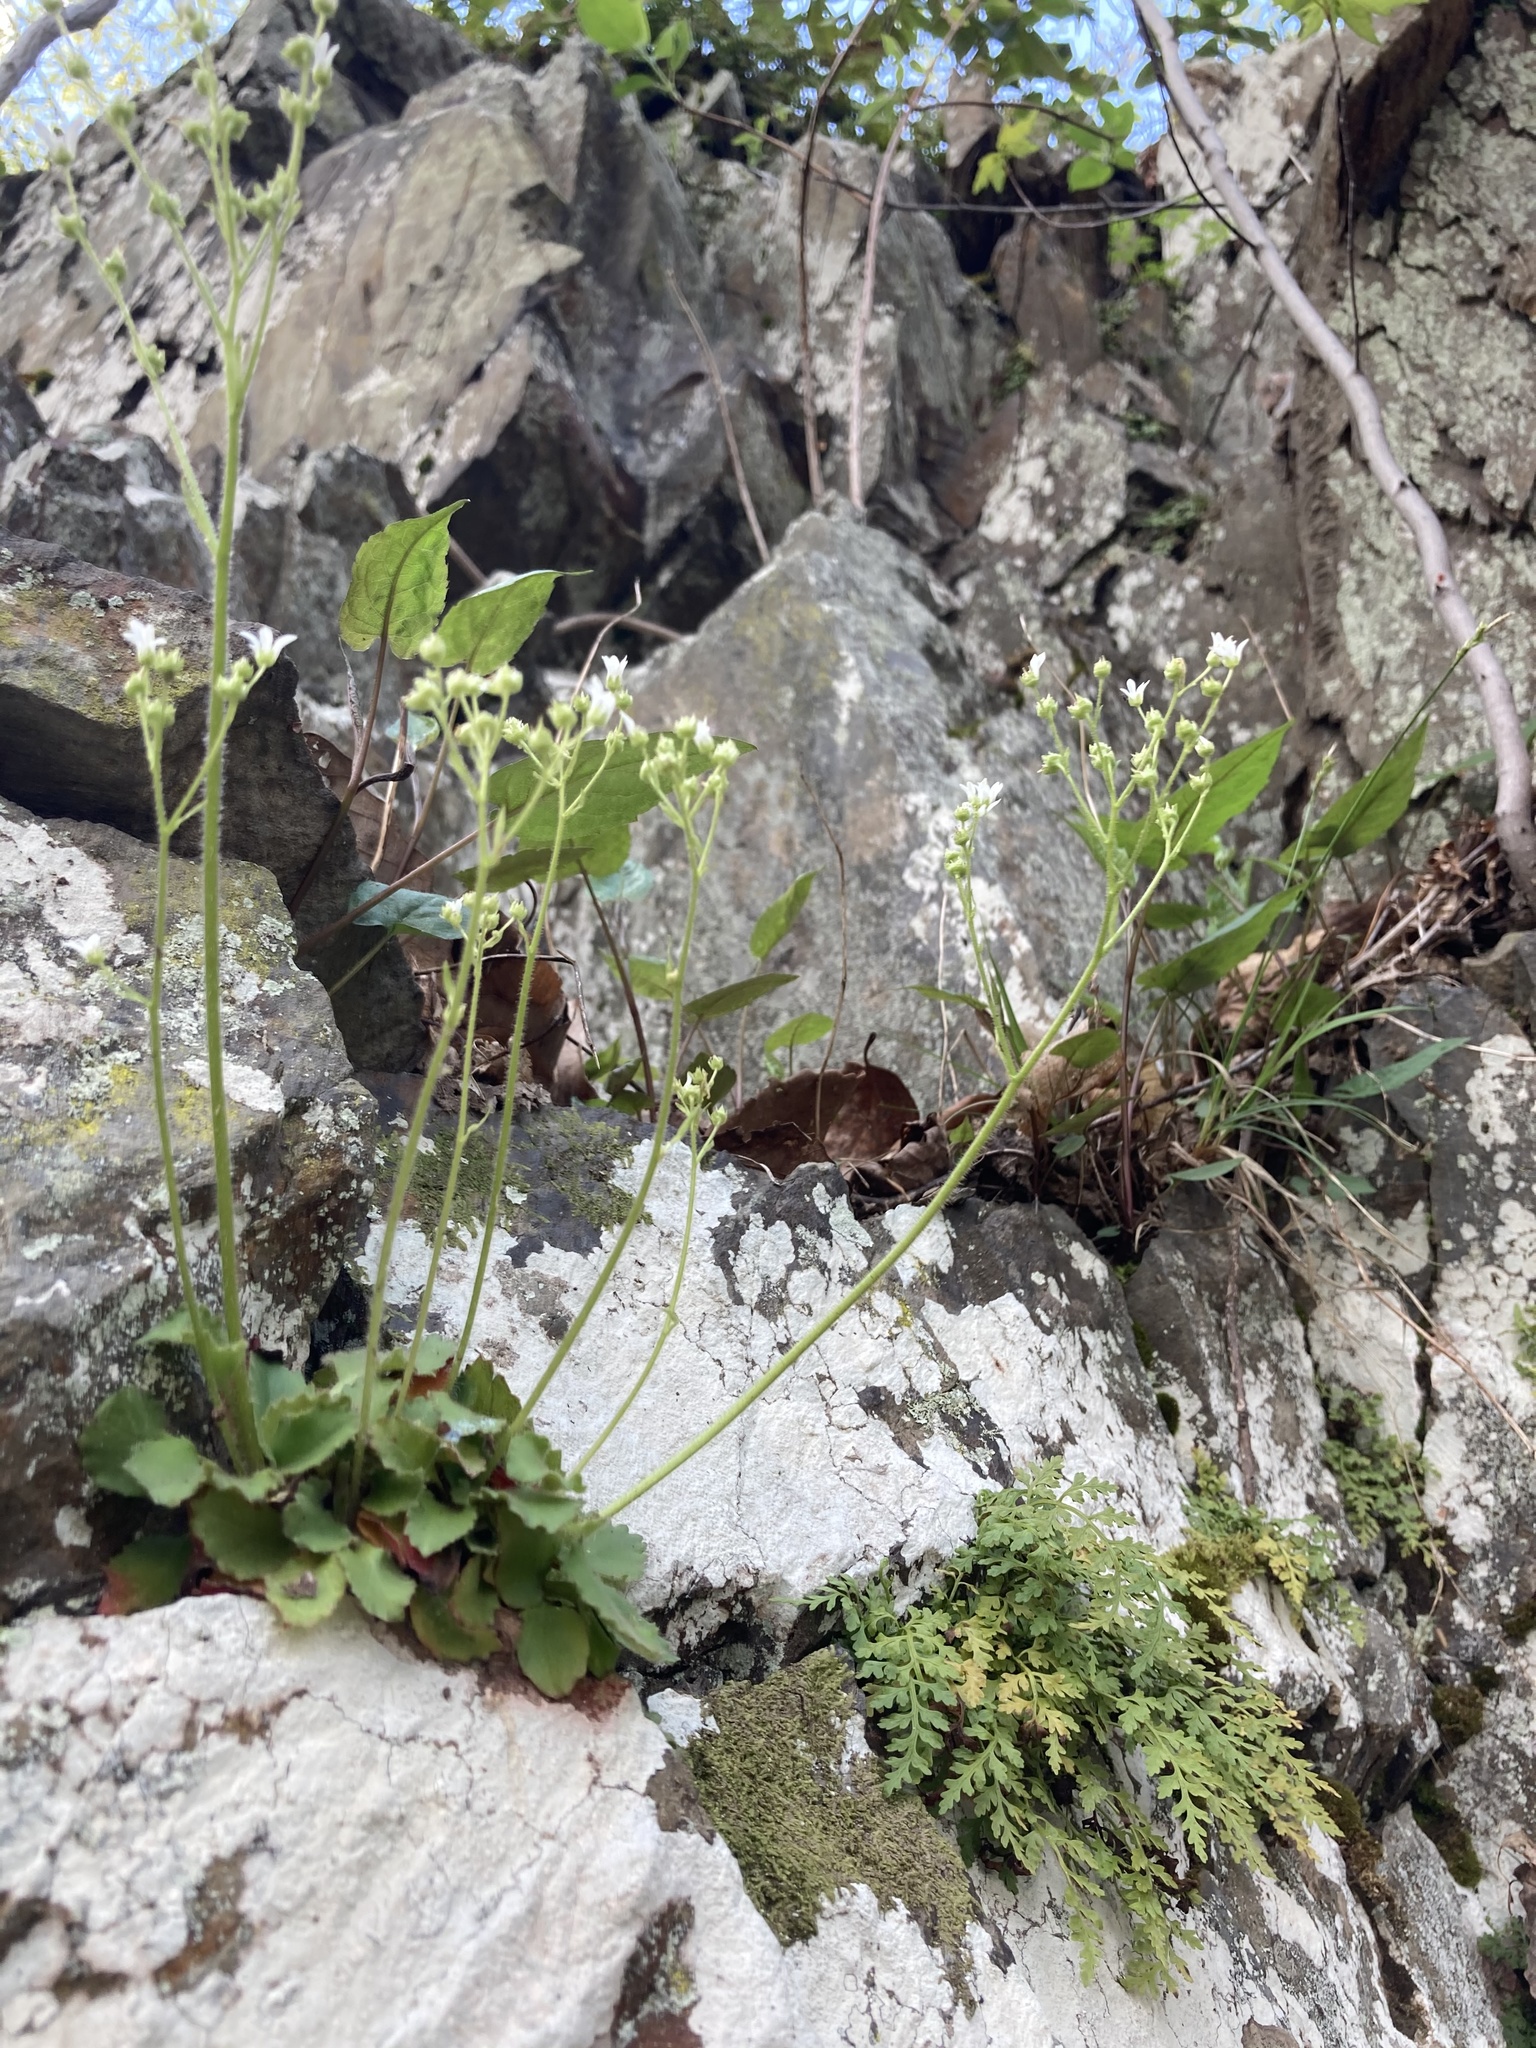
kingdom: Plantae
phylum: Tracheophyta
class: Magnoliopsida
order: Saxifragales
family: Saxifragaceae
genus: Micranthes
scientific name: Micranthes virginiensis
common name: Early saxifrage
